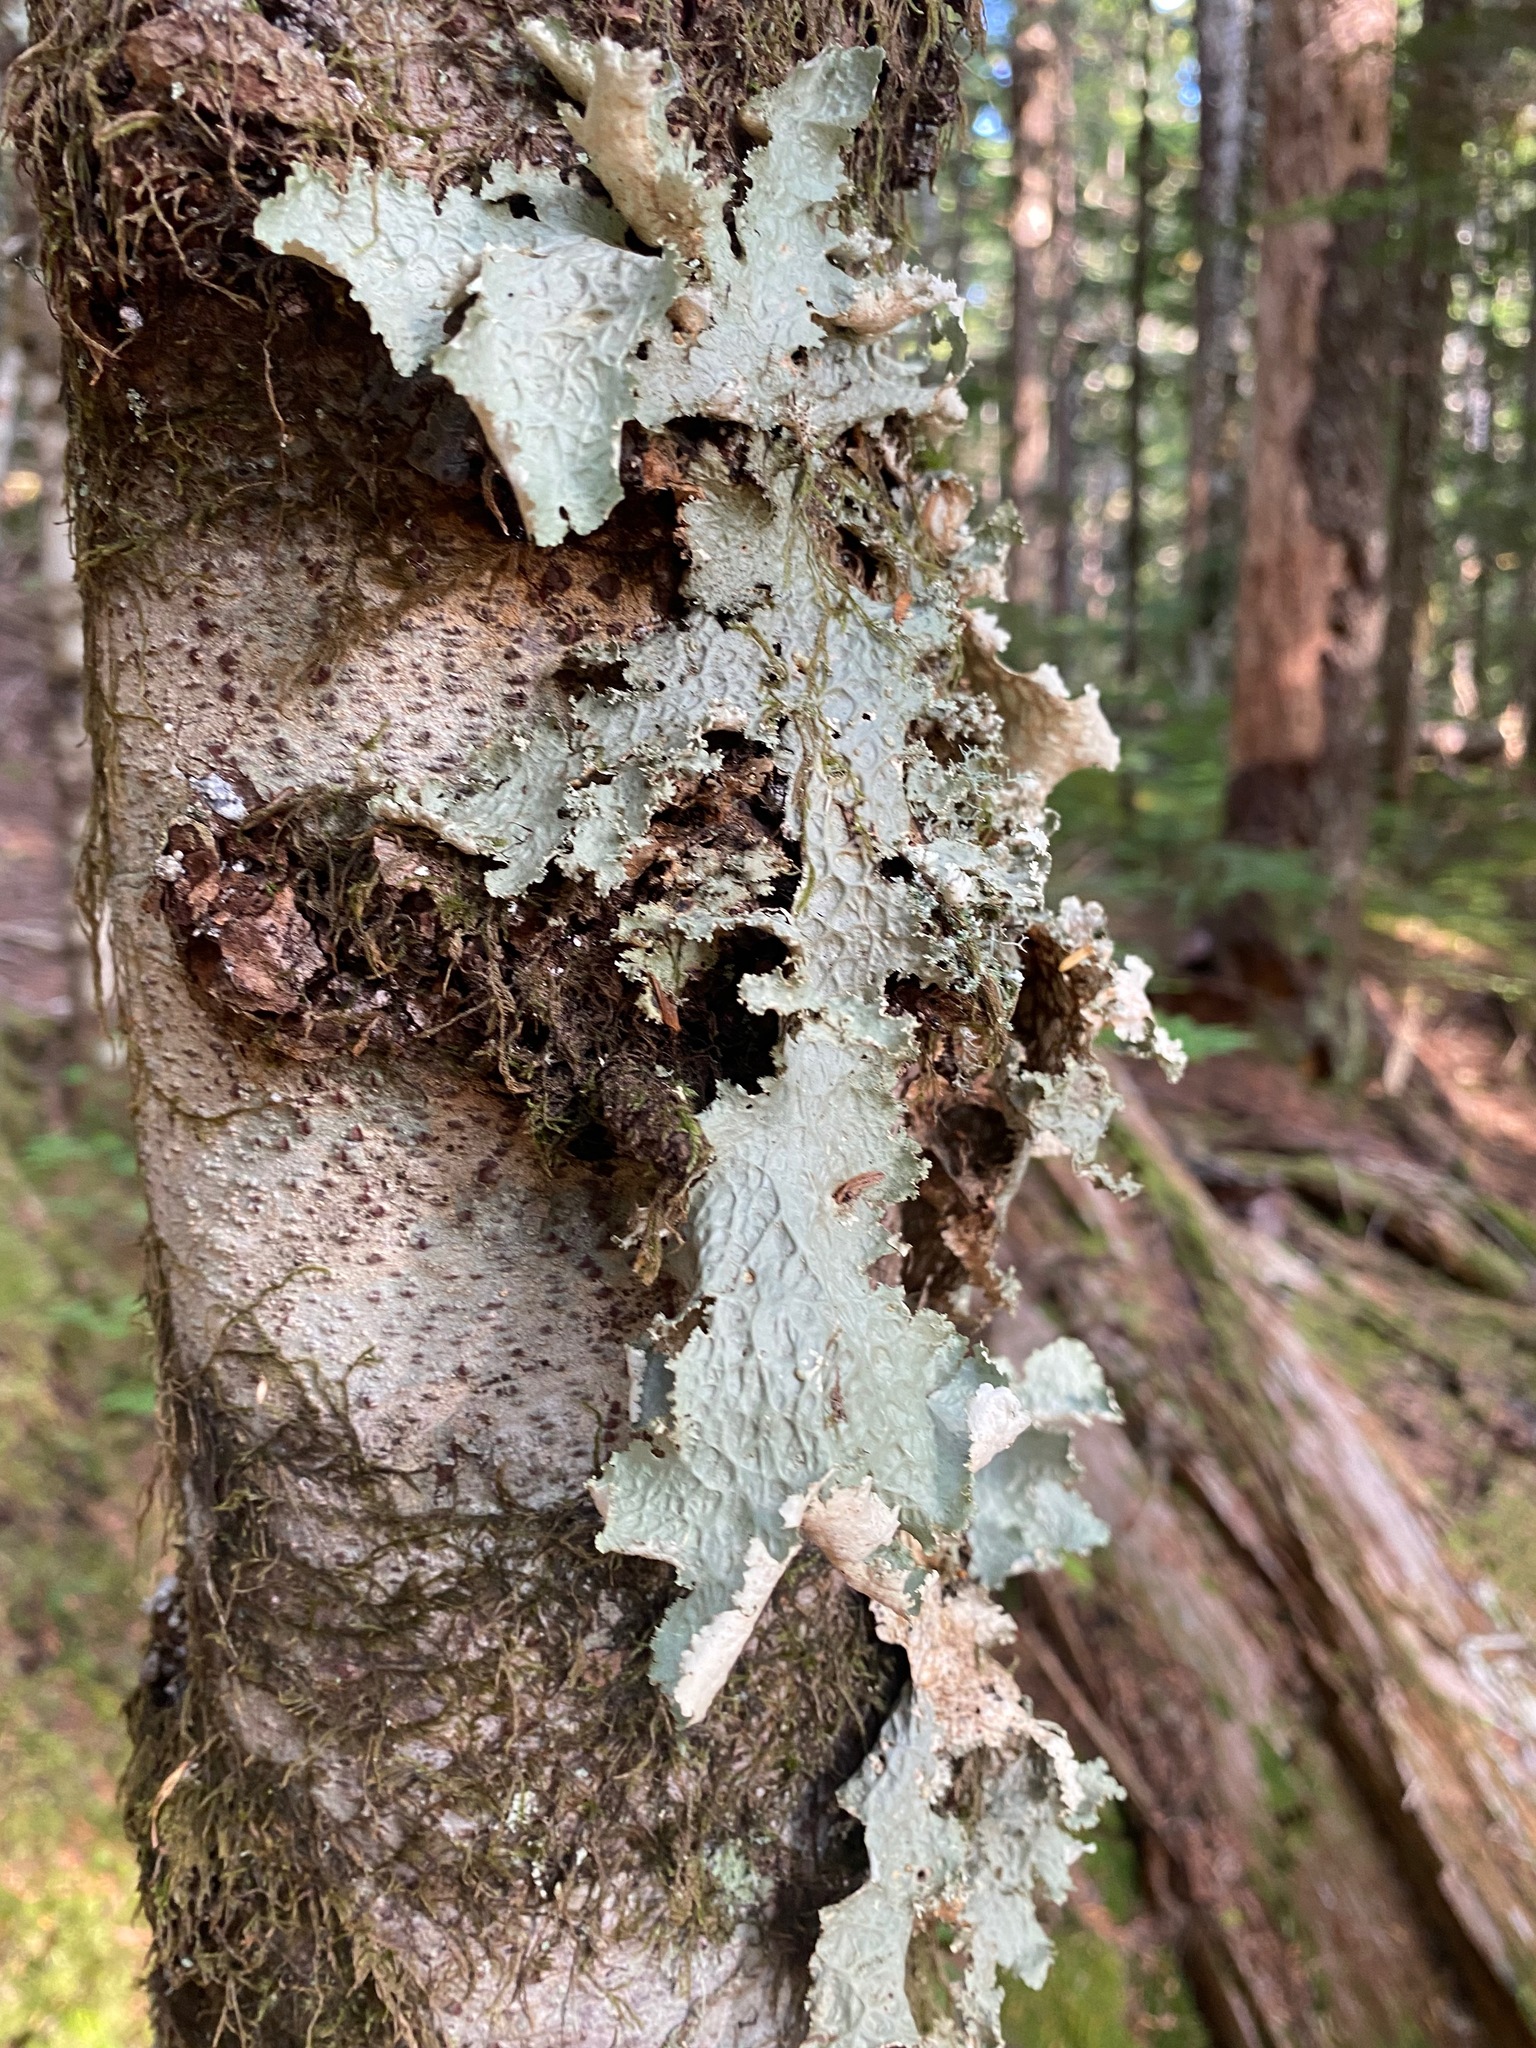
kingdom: Fungi
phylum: Ascomycota
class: Lecanoromycetes
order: Peltigerales
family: Lobariaceae
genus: Lobaria
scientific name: Lobaria oregana
